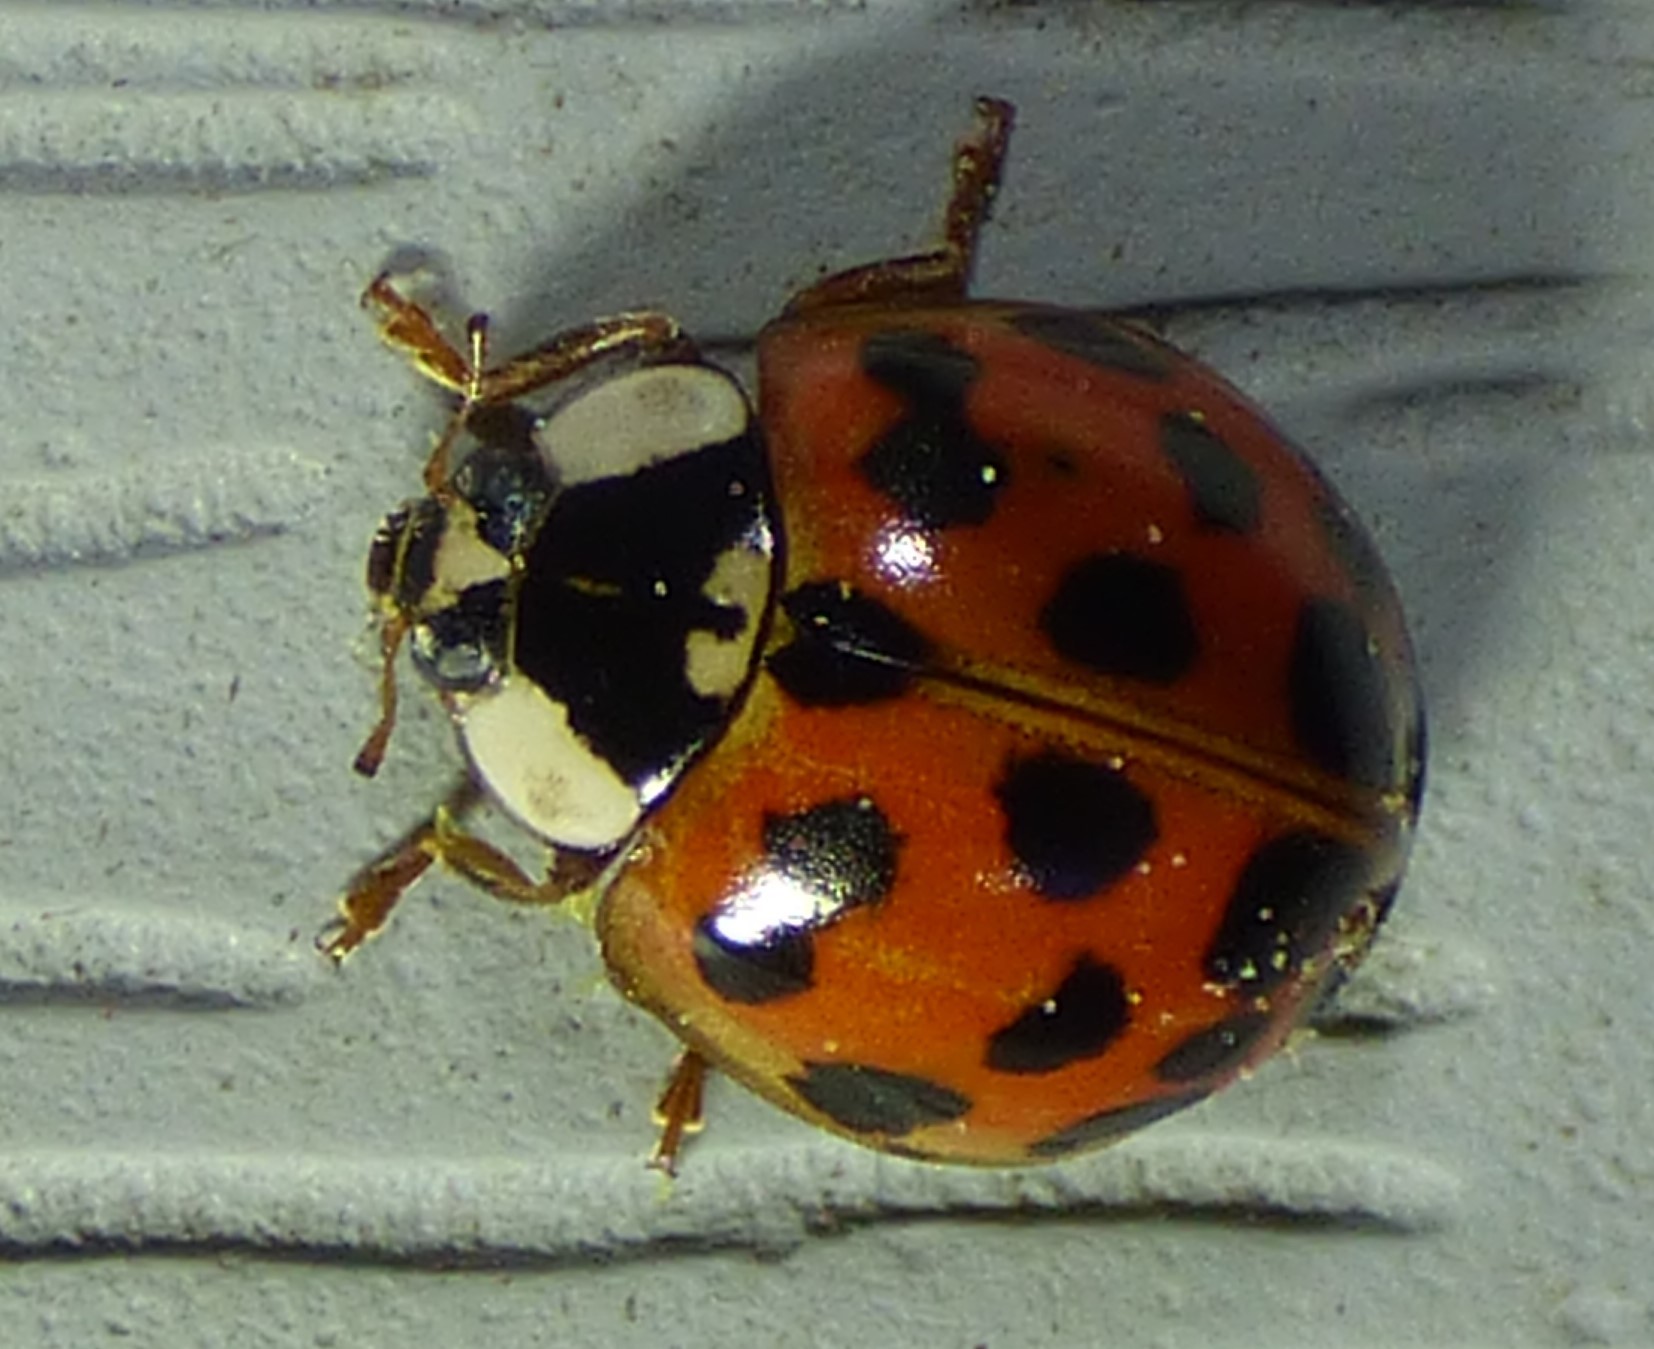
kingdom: Animalia
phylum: Arthropoda
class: Insecta
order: Coleoptera
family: Coccinellidae
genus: Harmonia
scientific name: Harmonia axyridis
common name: Harlequin ladybird
